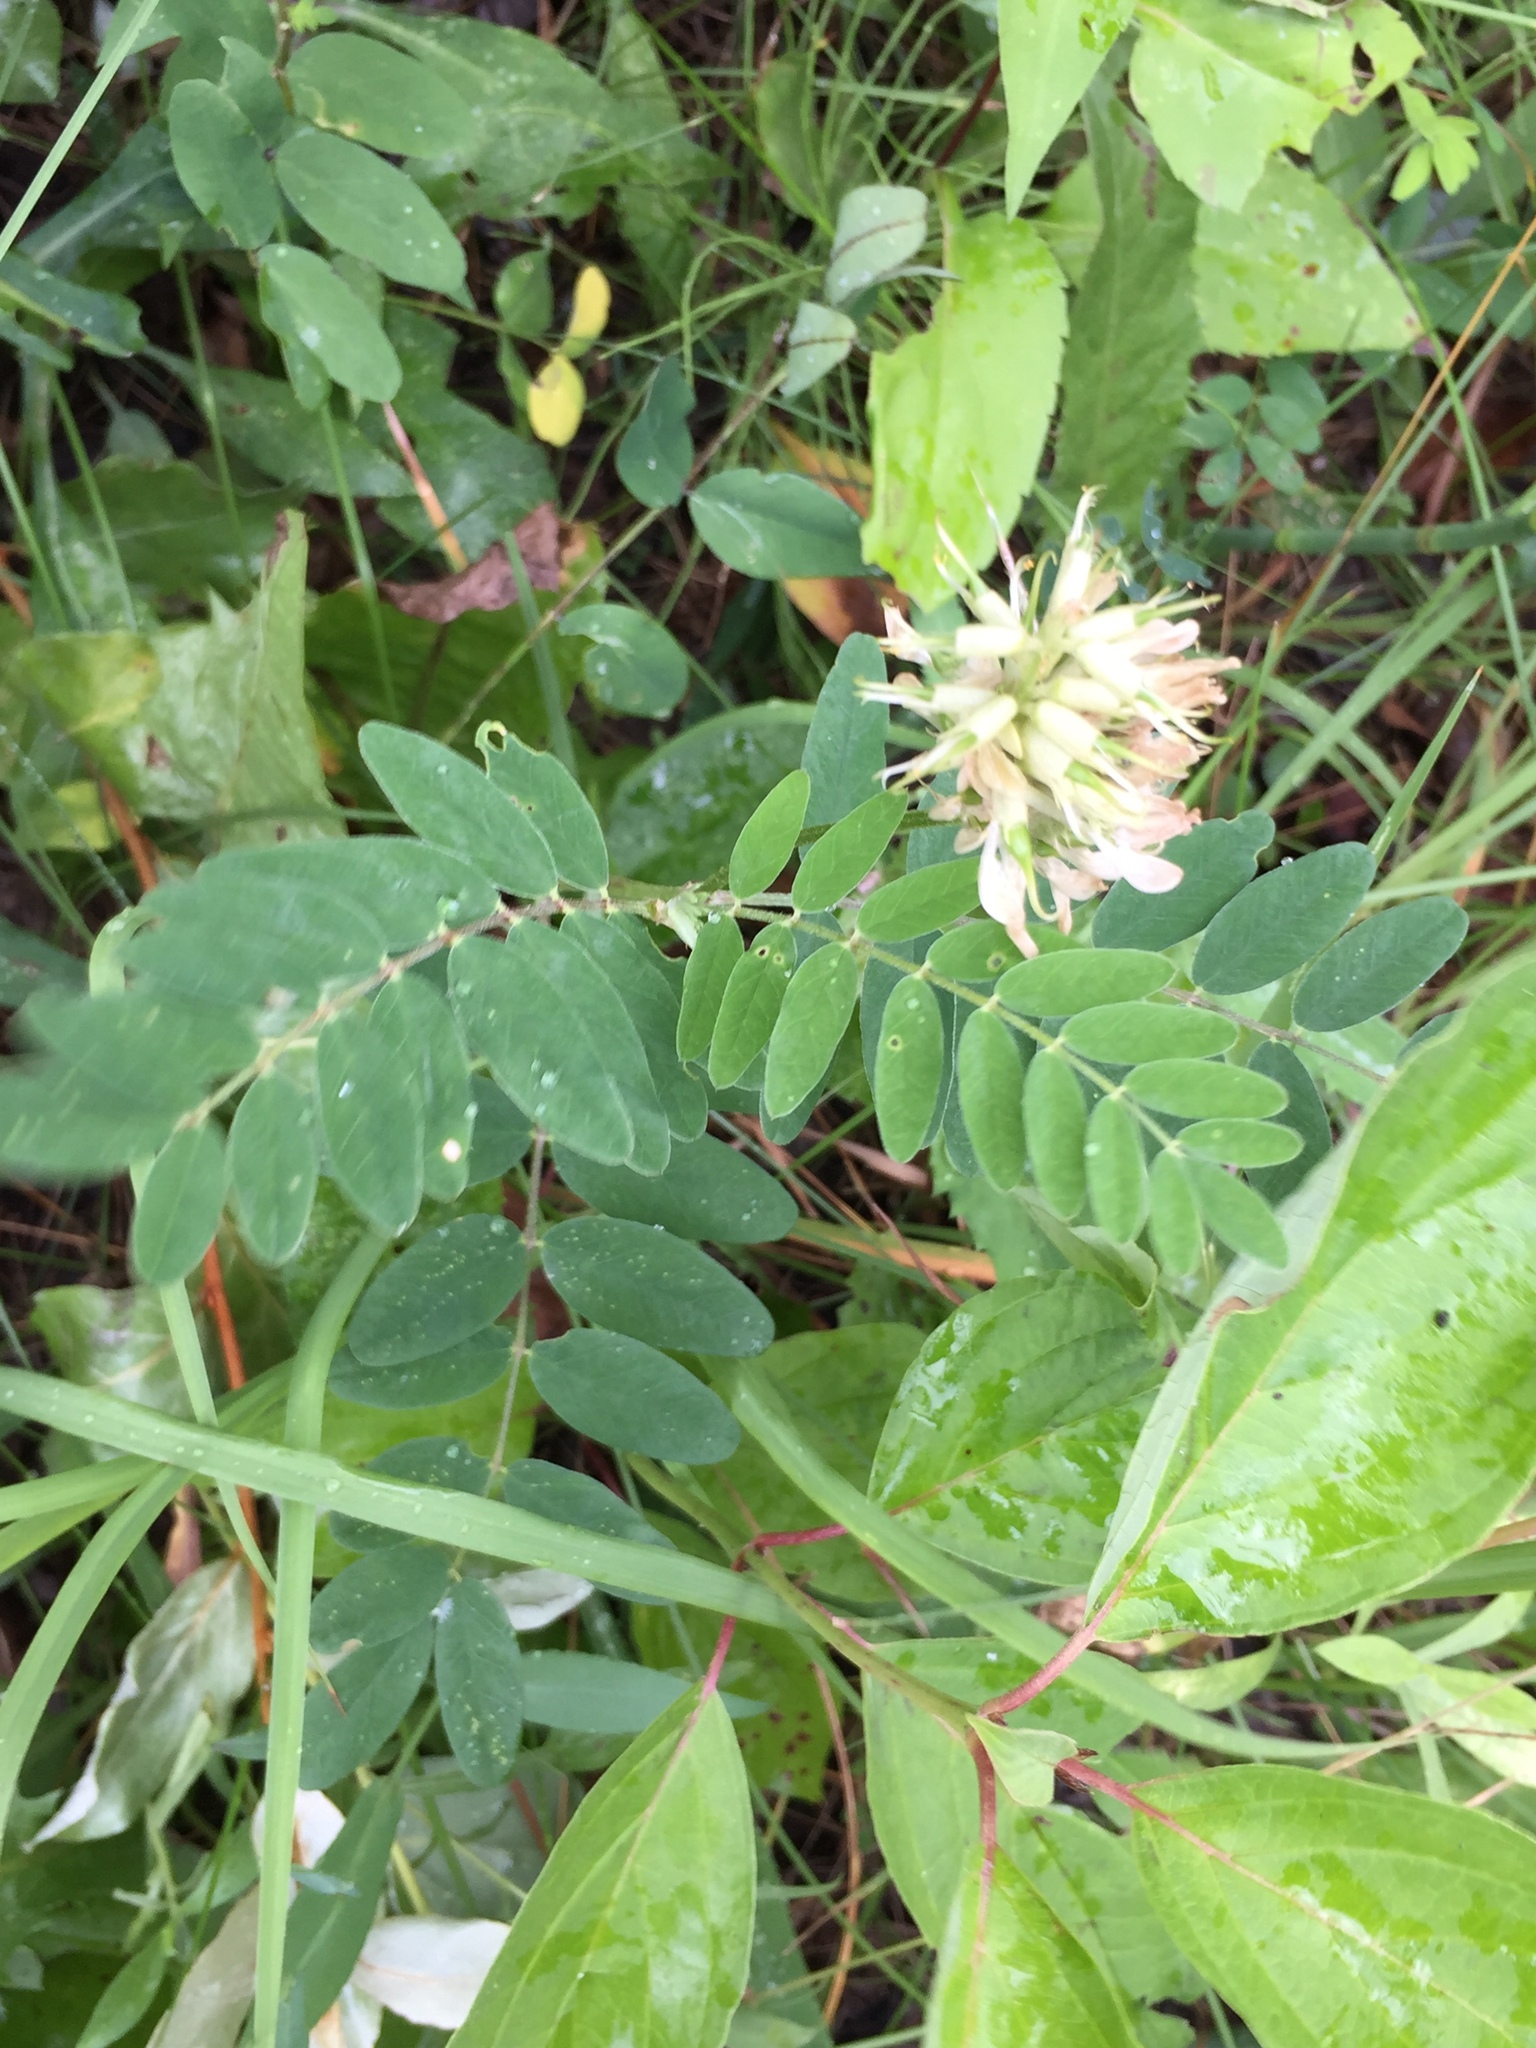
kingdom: Plantae
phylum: Tracheophyta
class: Magnoliopsida
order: Fabales
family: Fabaceae
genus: Astragalus
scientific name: Astragalus canadensis
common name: Canada milk-vetch
